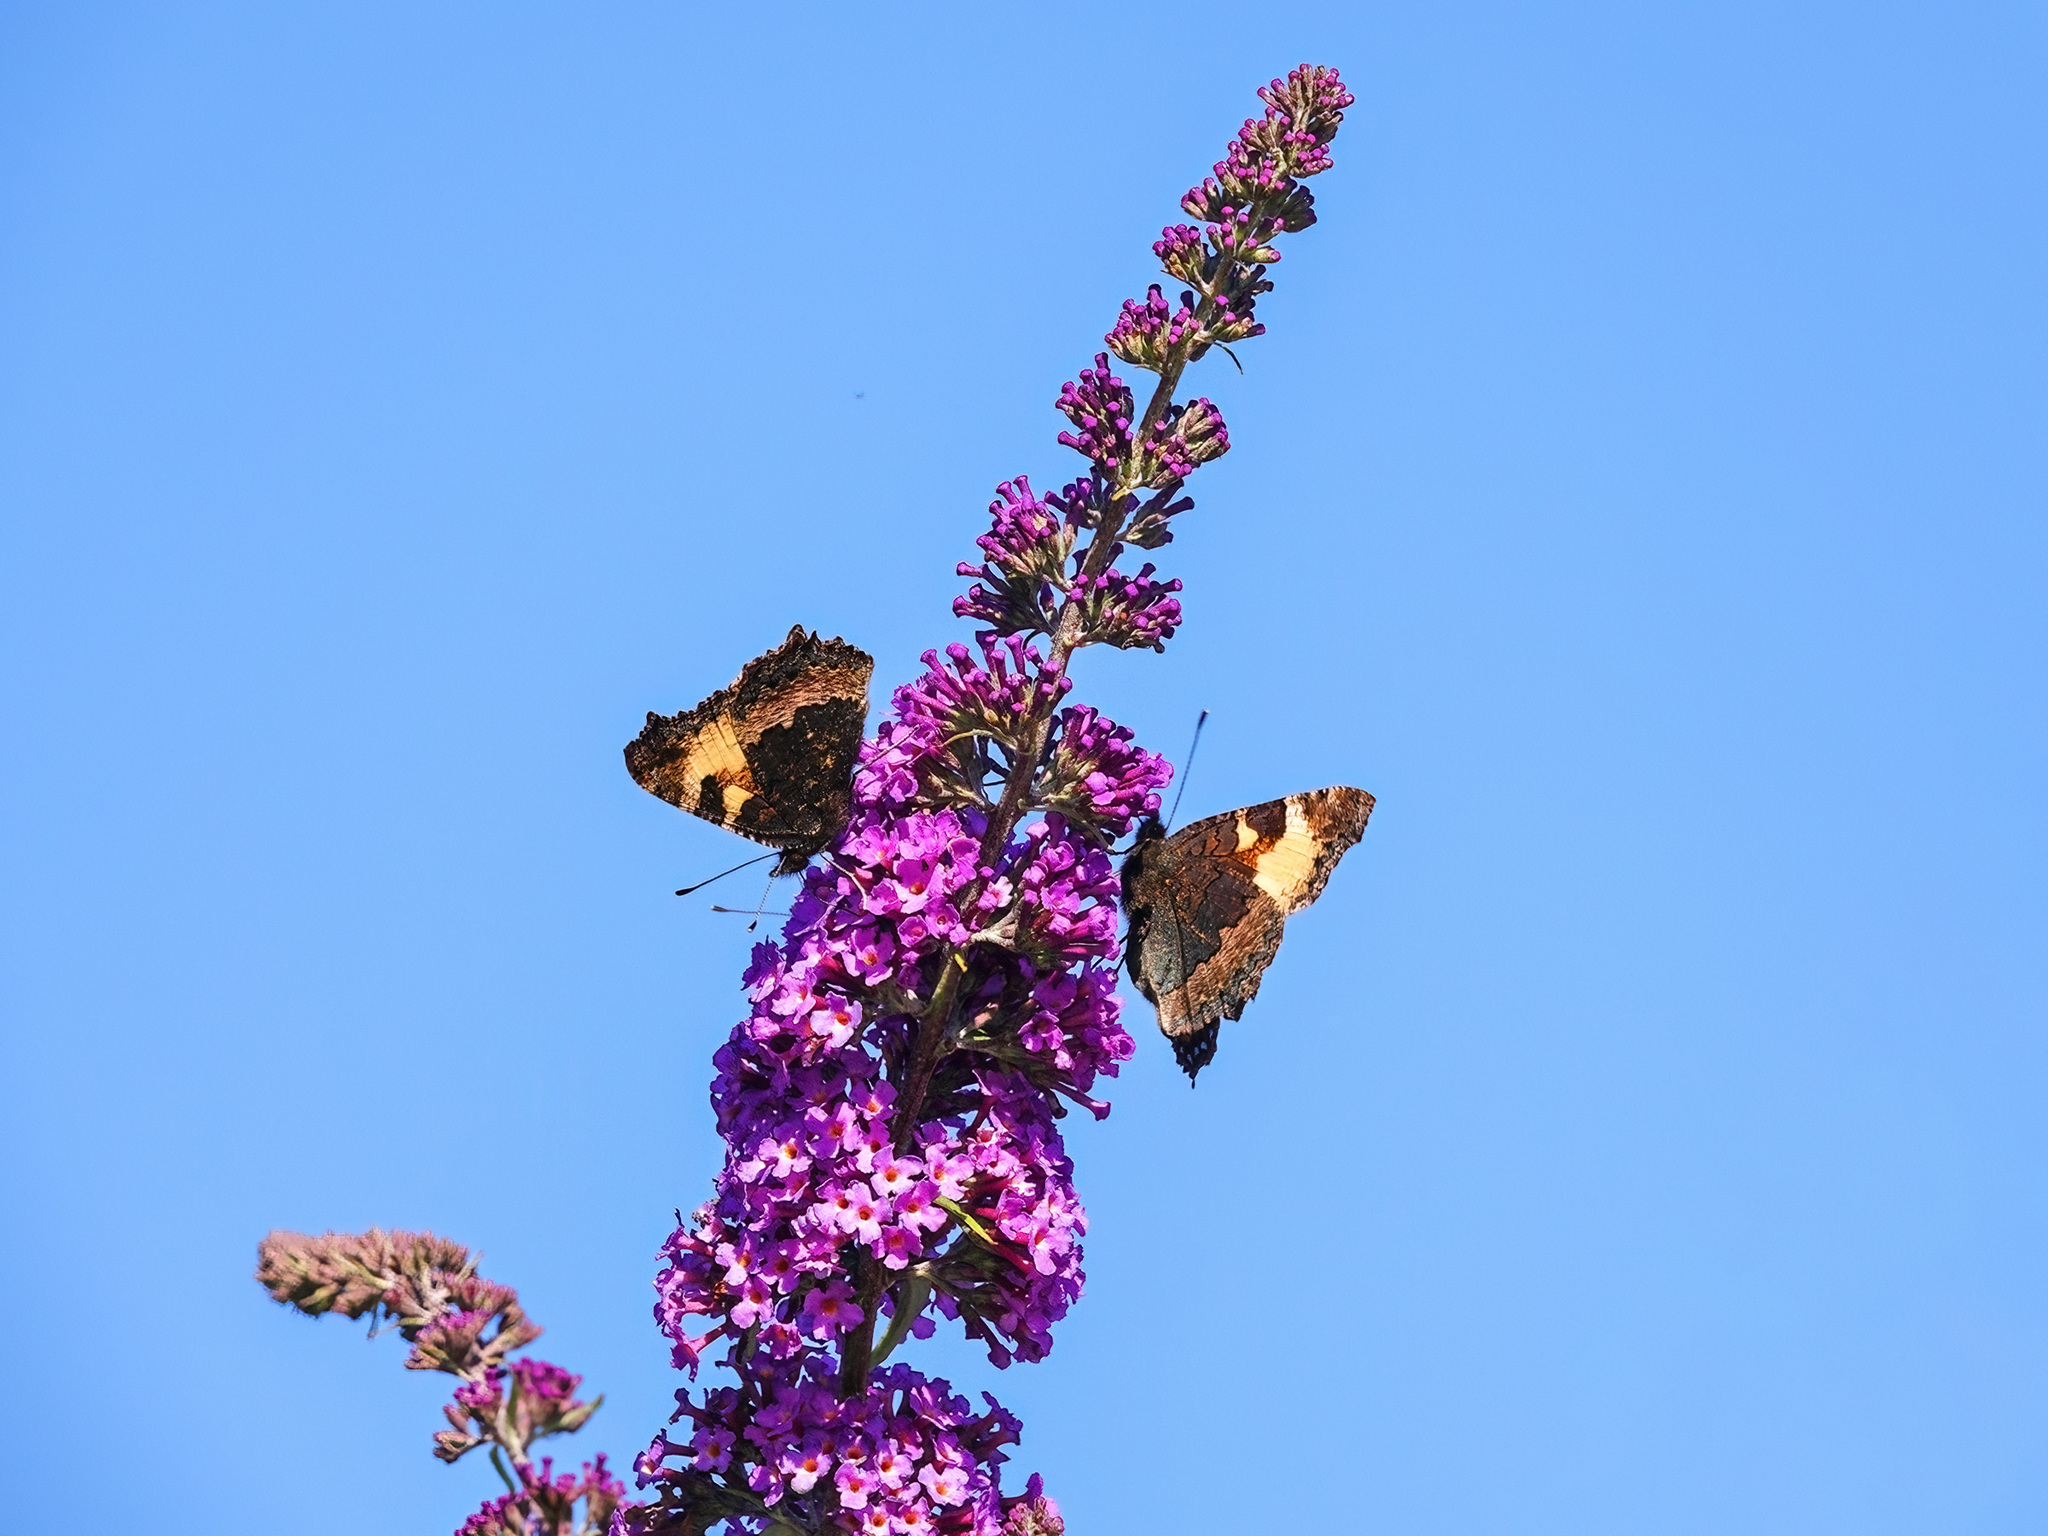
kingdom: Animalia
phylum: Arthropoda
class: Insecta
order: Lepidoptera
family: Nymphalidae
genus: Aglais
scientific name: Aglais urticae
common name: Small tortoiseshell
